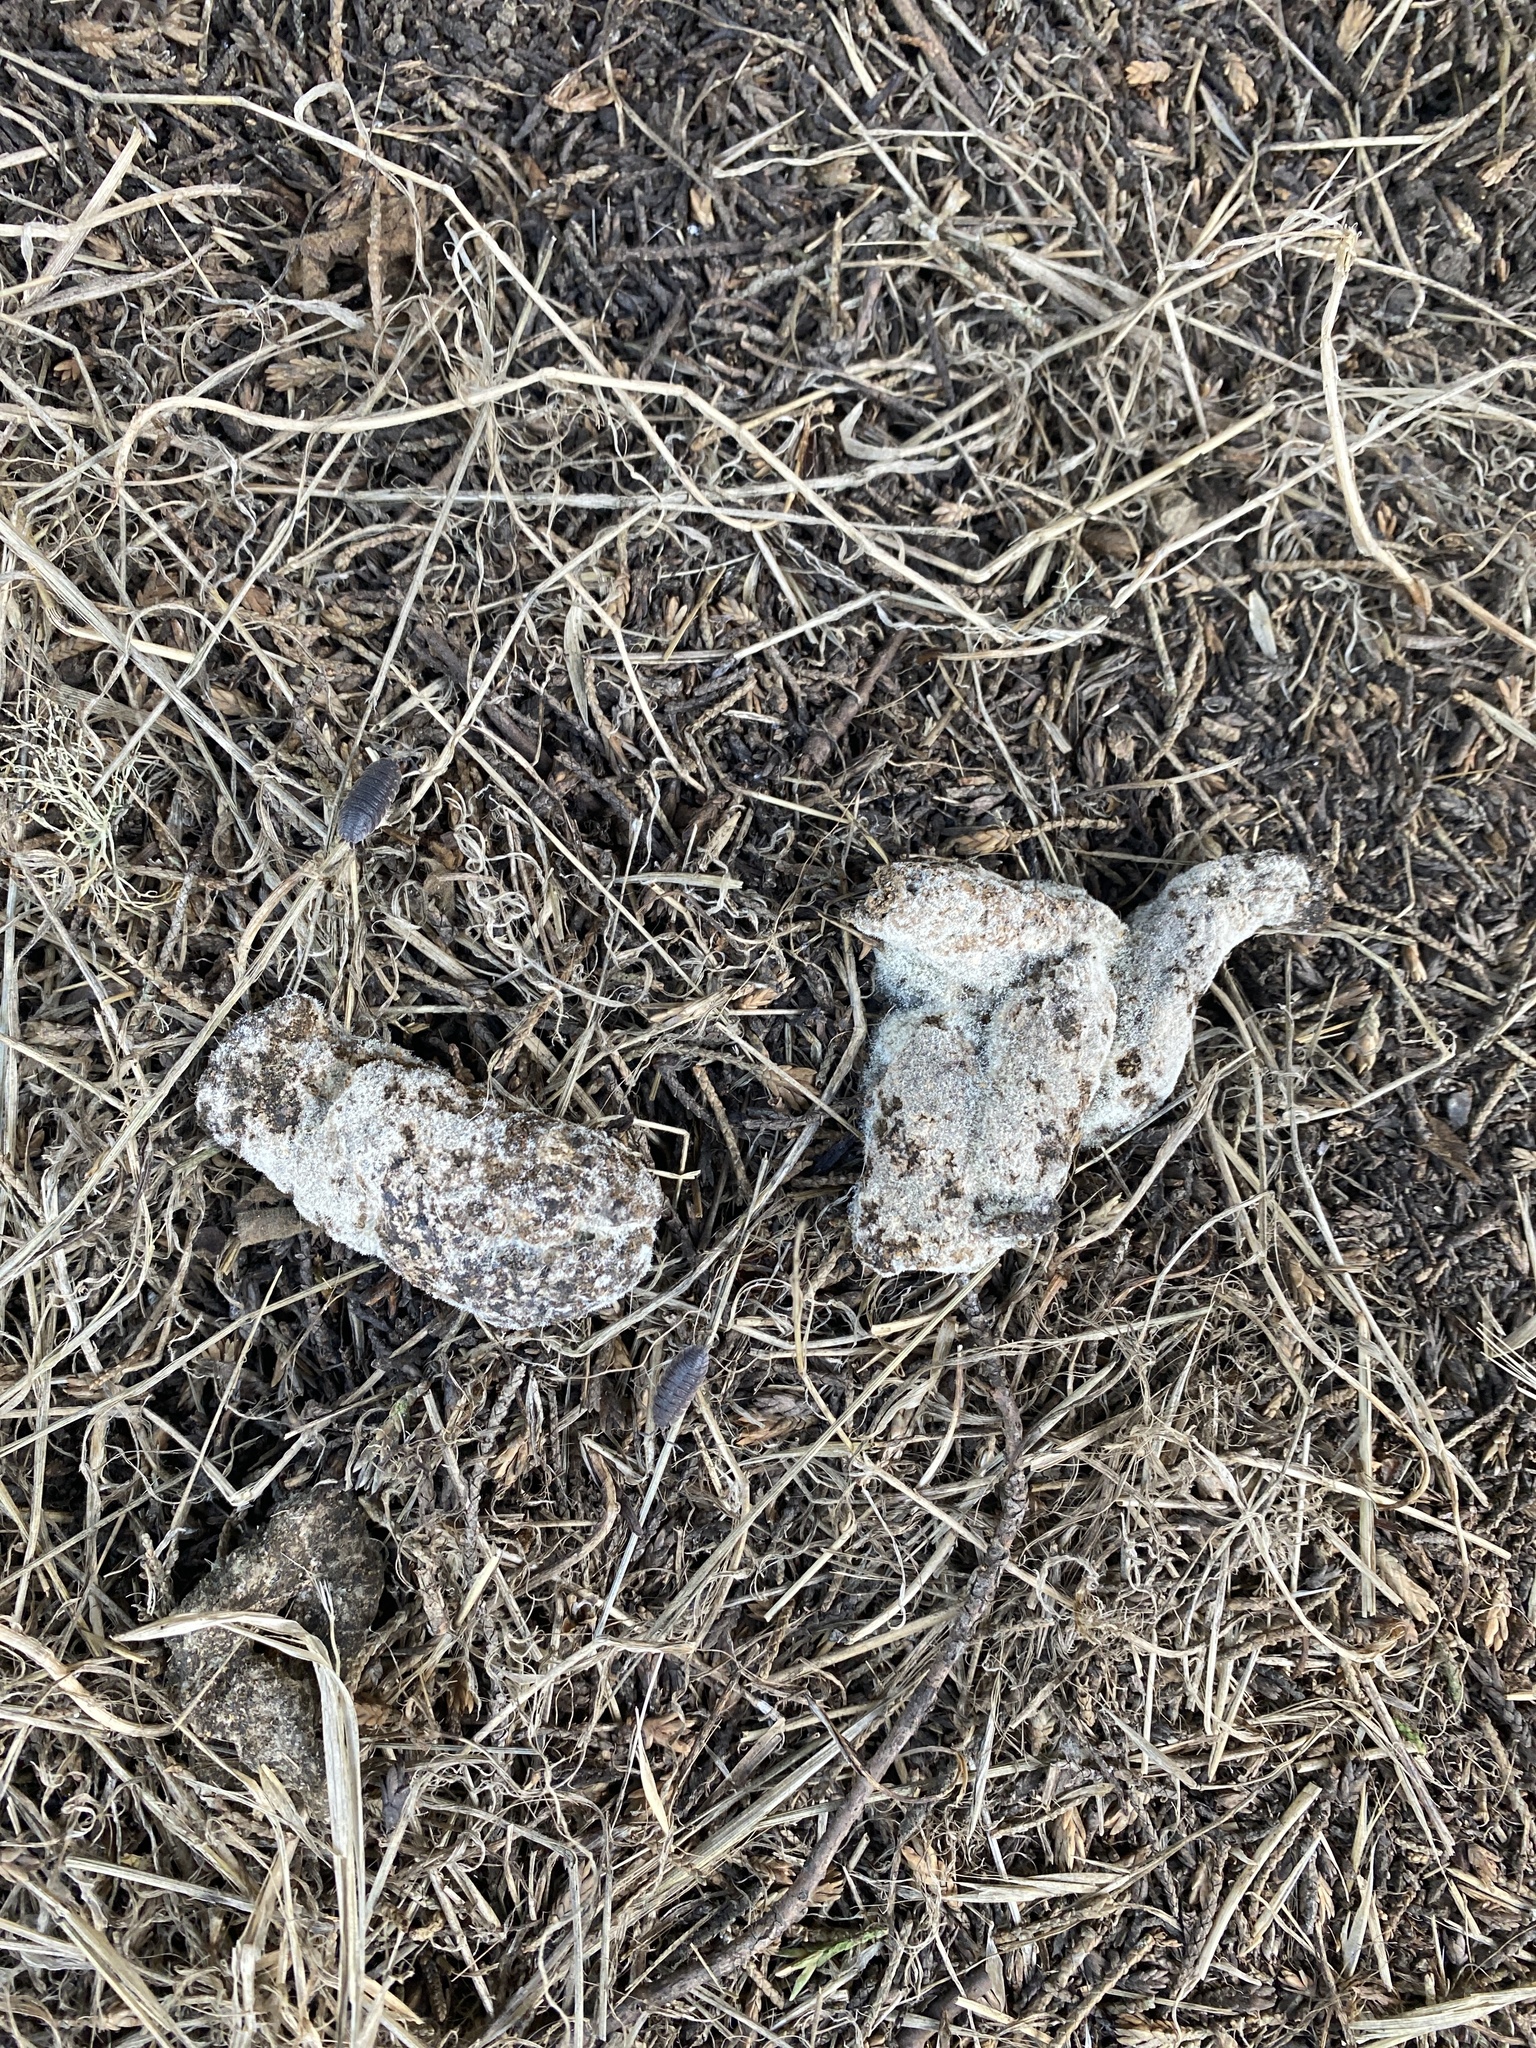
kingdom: Animalia
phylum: Chordata
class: Mammalia
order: Carnivora
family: Canidae
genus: Canis
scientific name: Canis latrans
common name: Coyote
